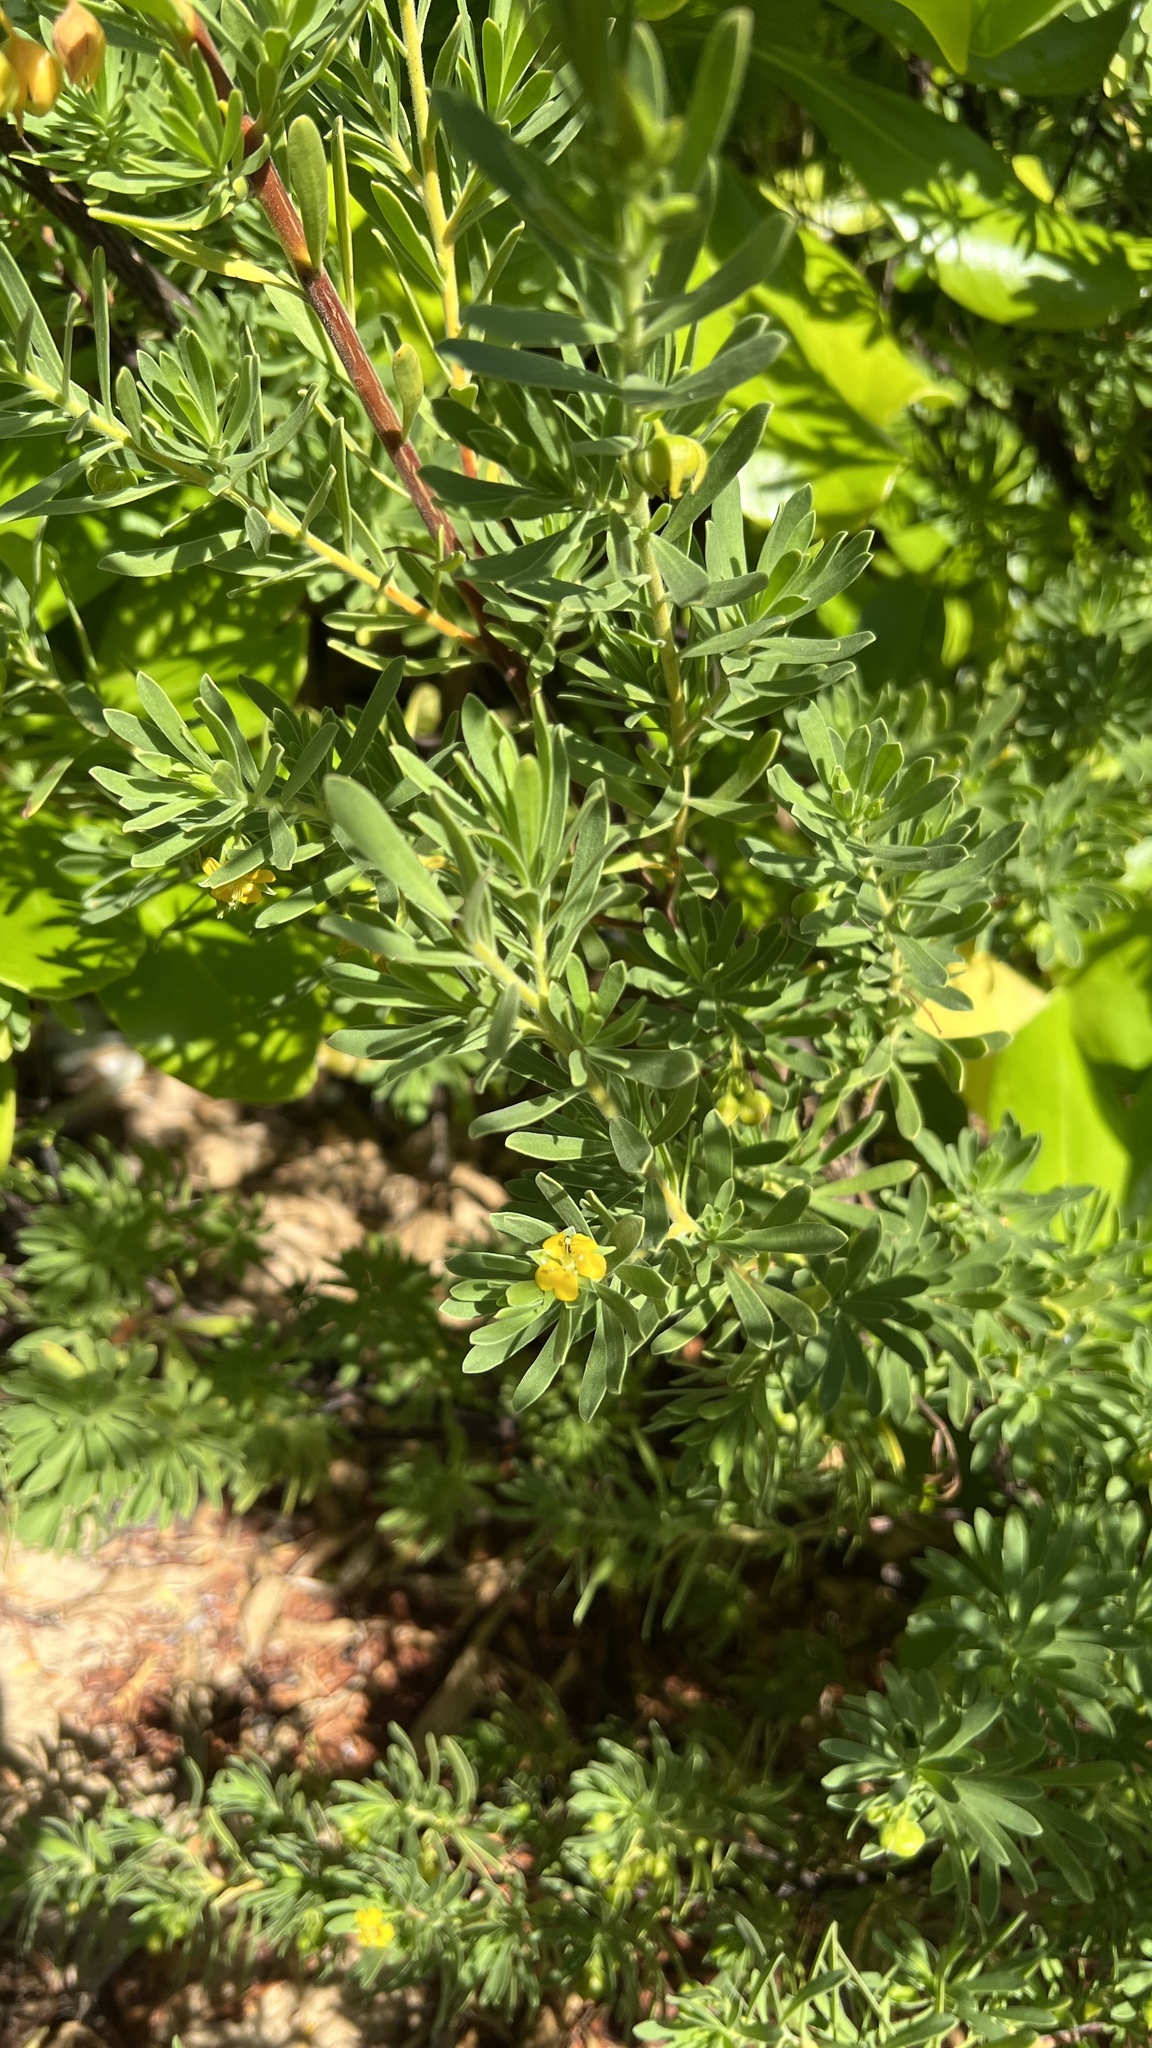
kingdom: Plantae
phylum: Tracheophyta
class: Magnoliopsida
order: Fabales
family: Surianaceae
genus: Suriana
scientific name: Suriana maritima
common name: Bay-cedar
